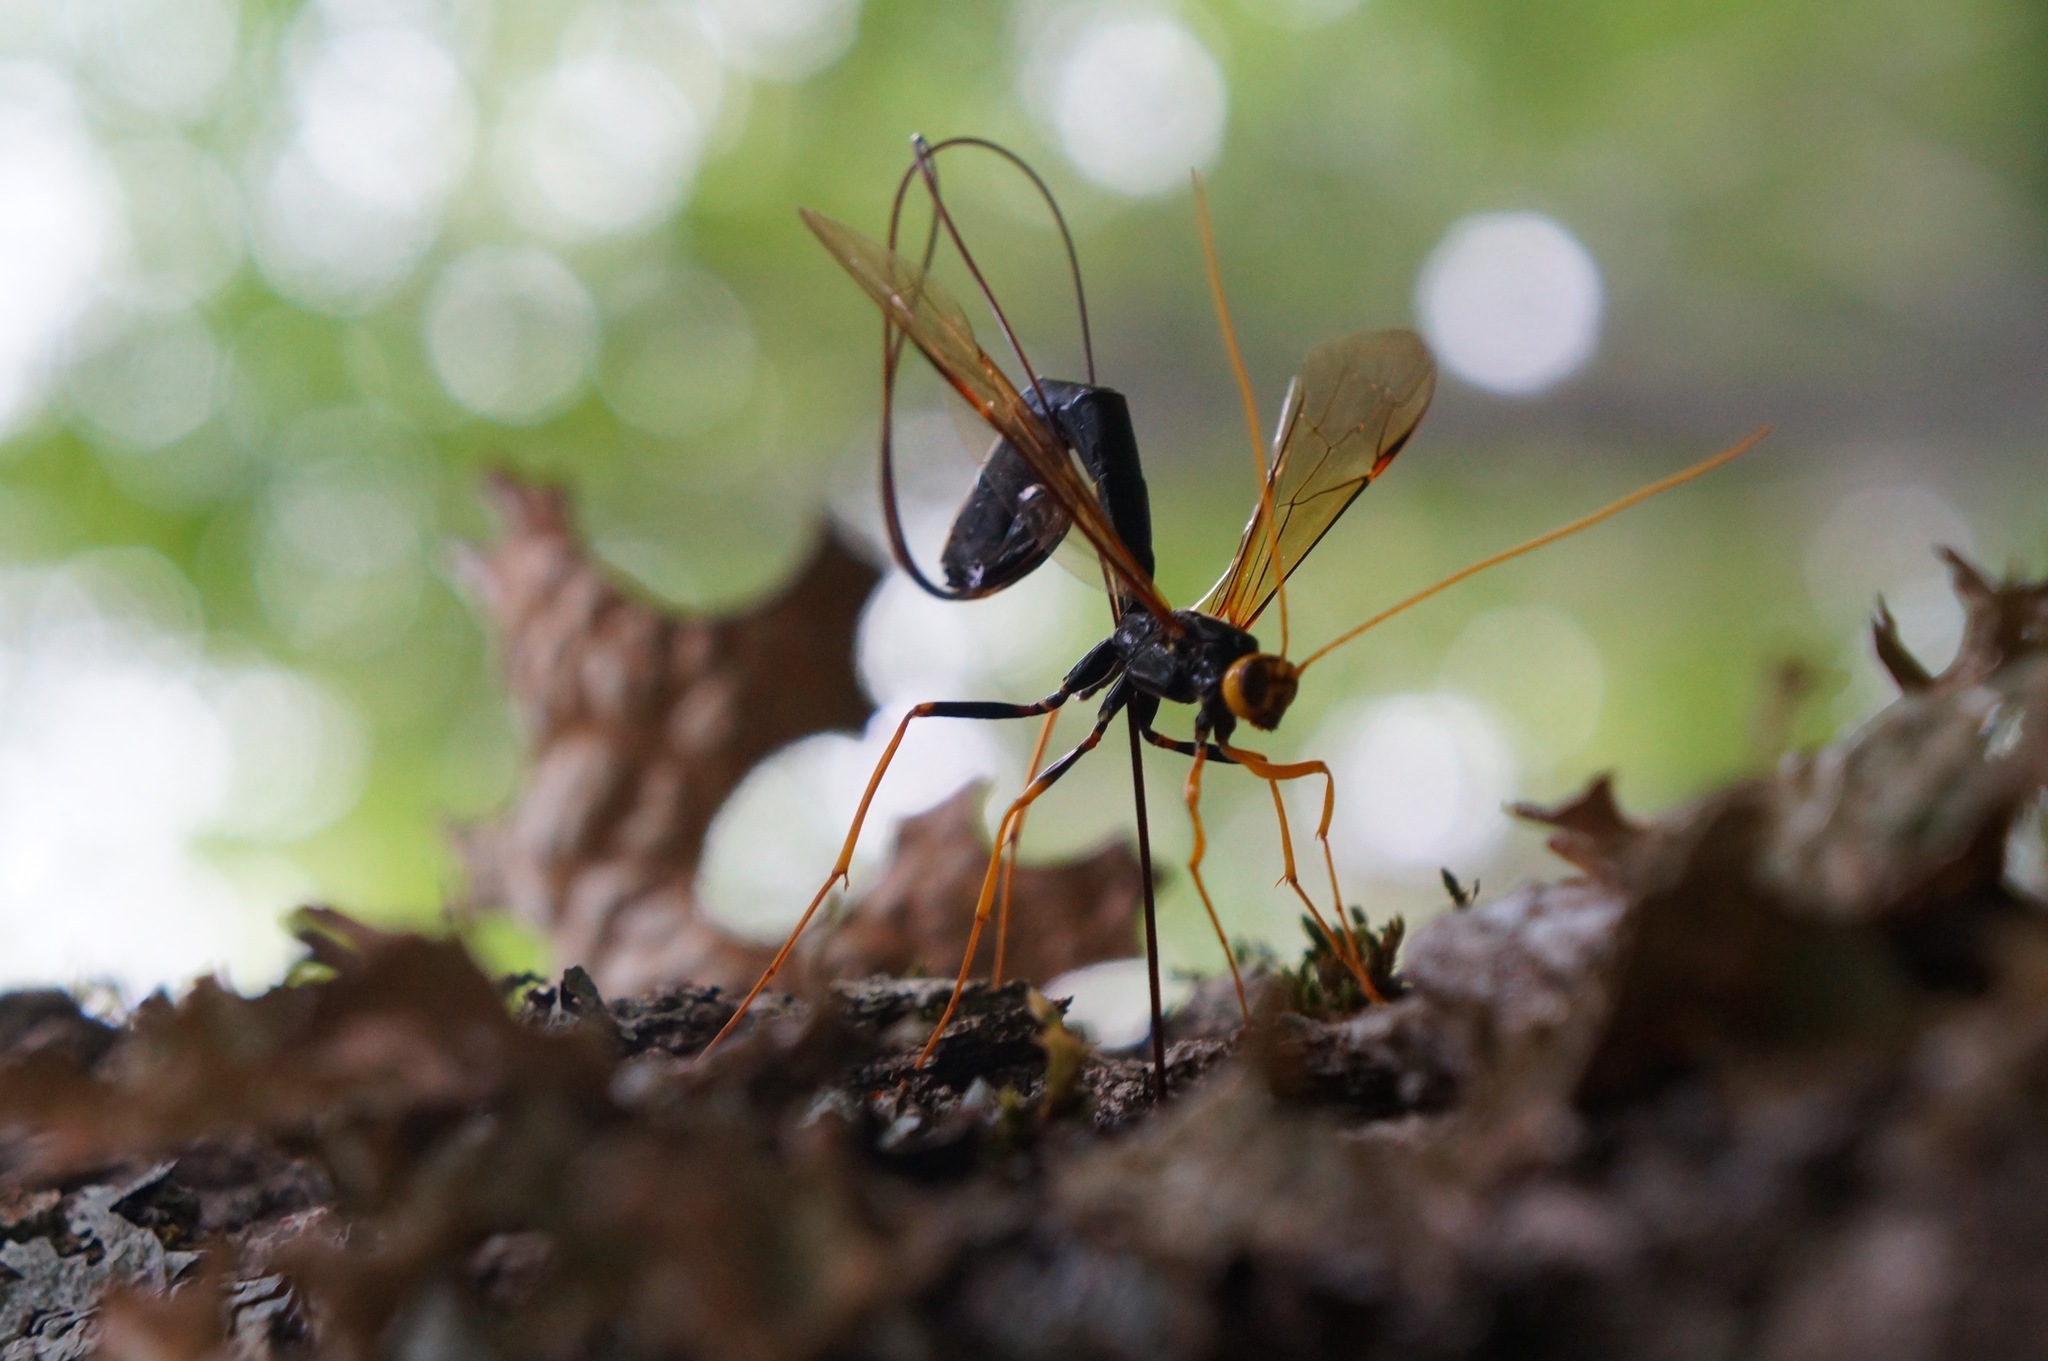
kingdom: Animalia
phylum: Arthropoda
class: Insecta
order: Hymenoptera
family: Ichneumonidae
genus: Megarhyssa
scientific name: Megarhyssa atrata
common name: Black giant ichneumonid wasp
